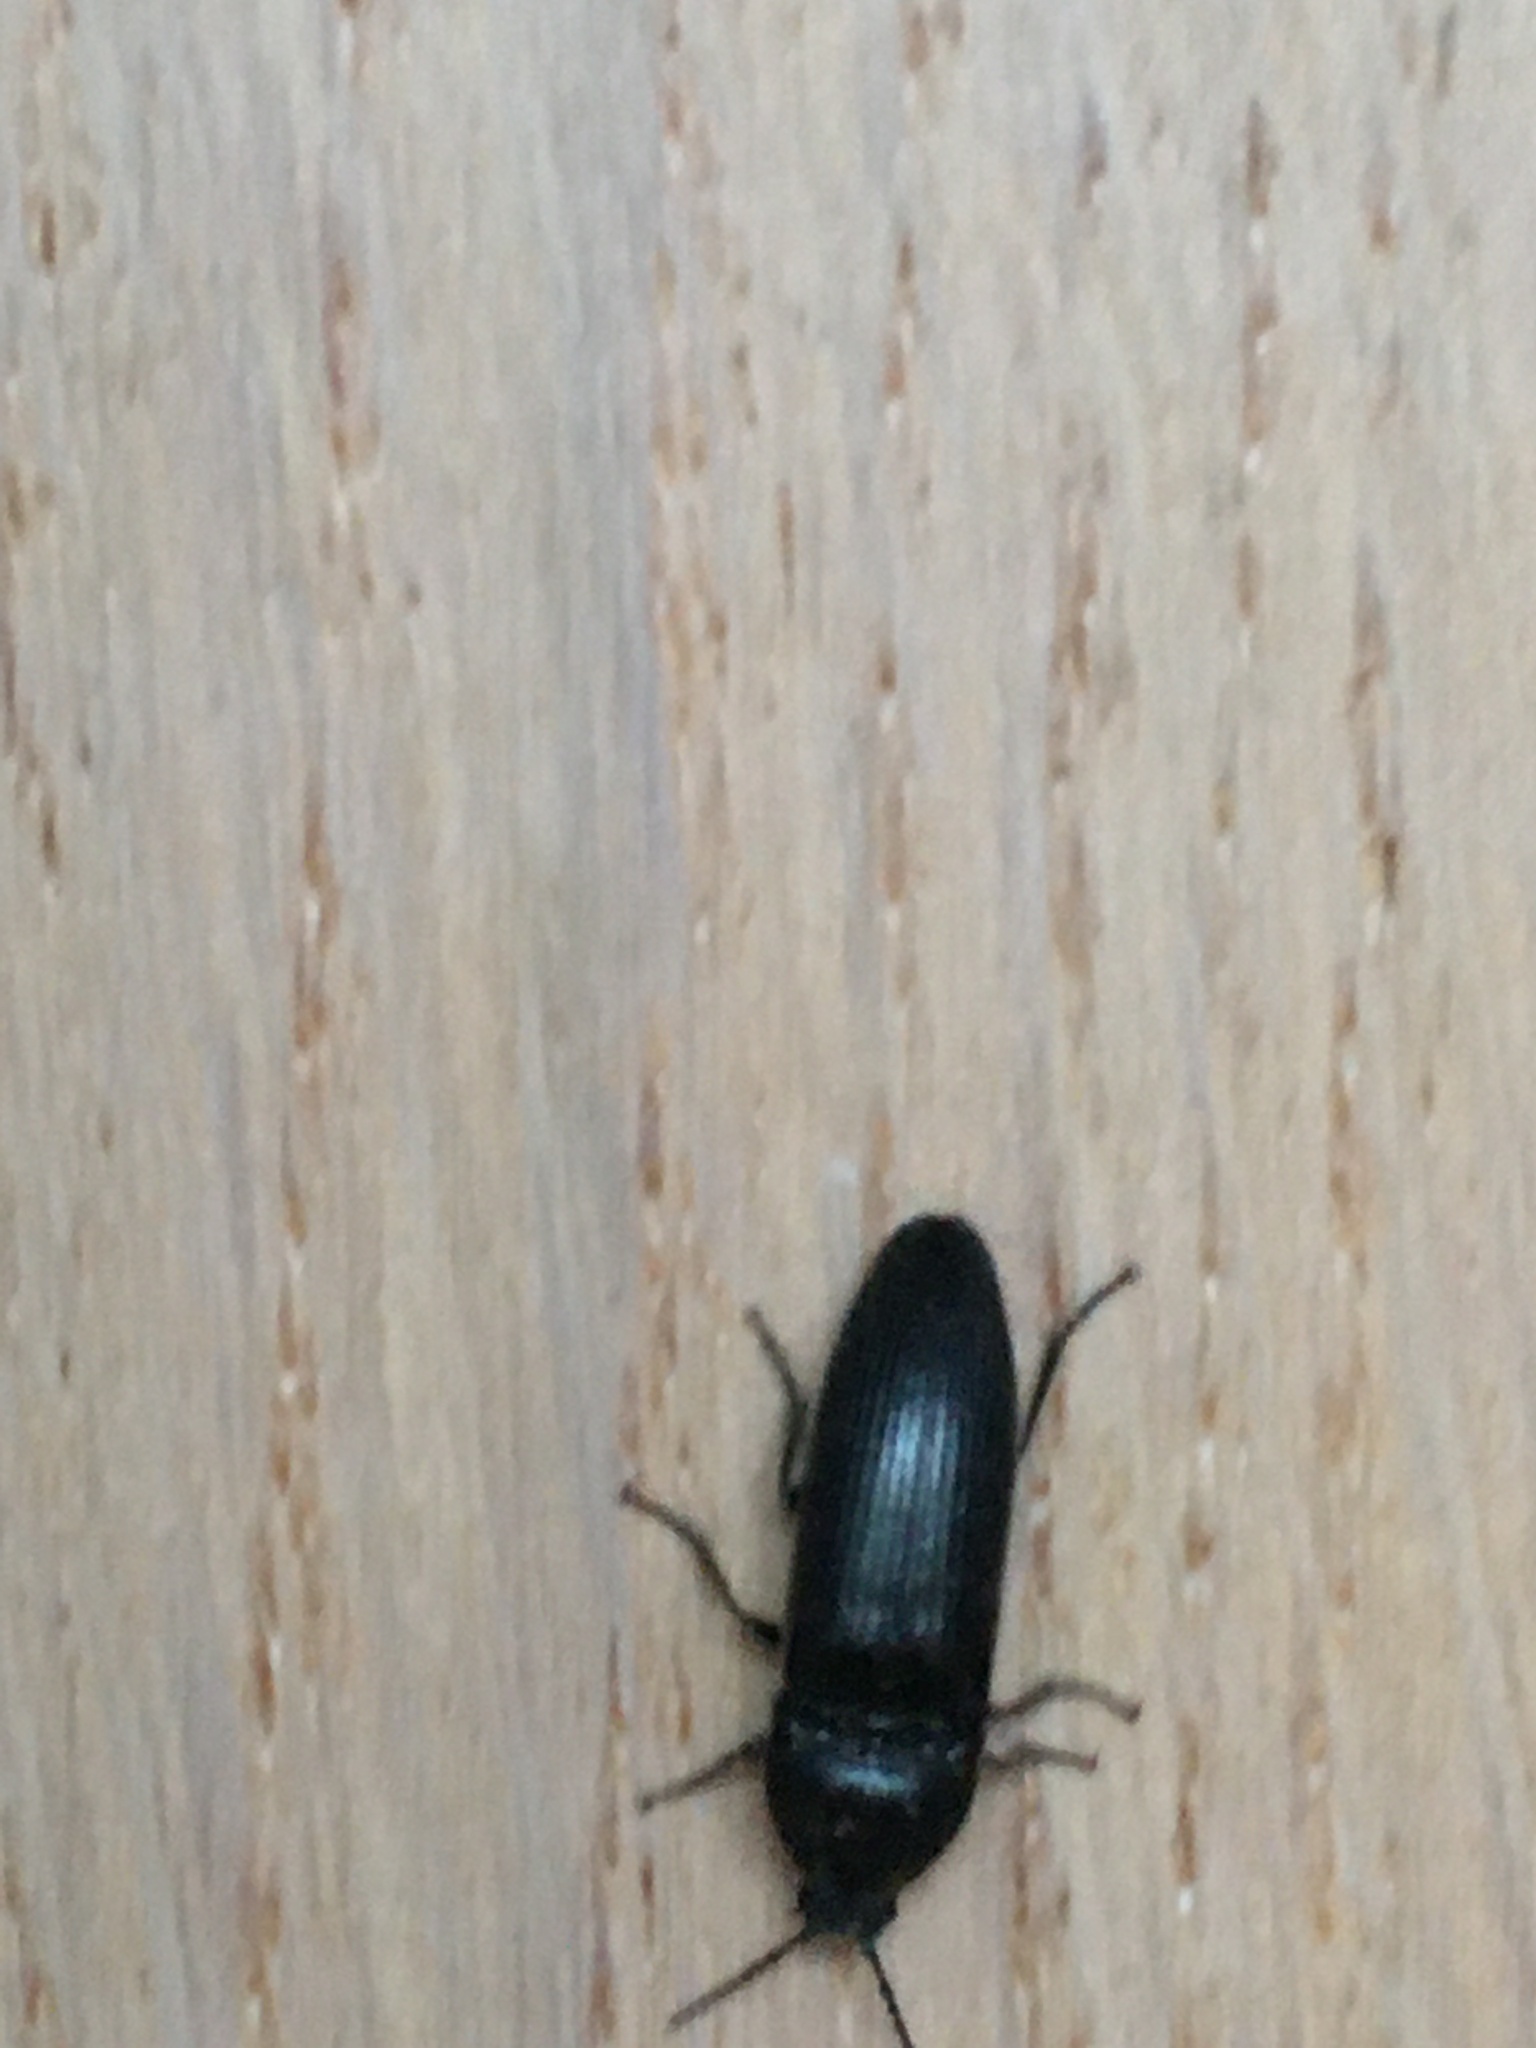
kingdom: Animalia
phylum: Arthropoda
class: Insecta
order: Coleoptera
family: Tenebrionidae
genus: Tenebrio
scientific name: Tenebrio molitor
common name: Hardback beetle
